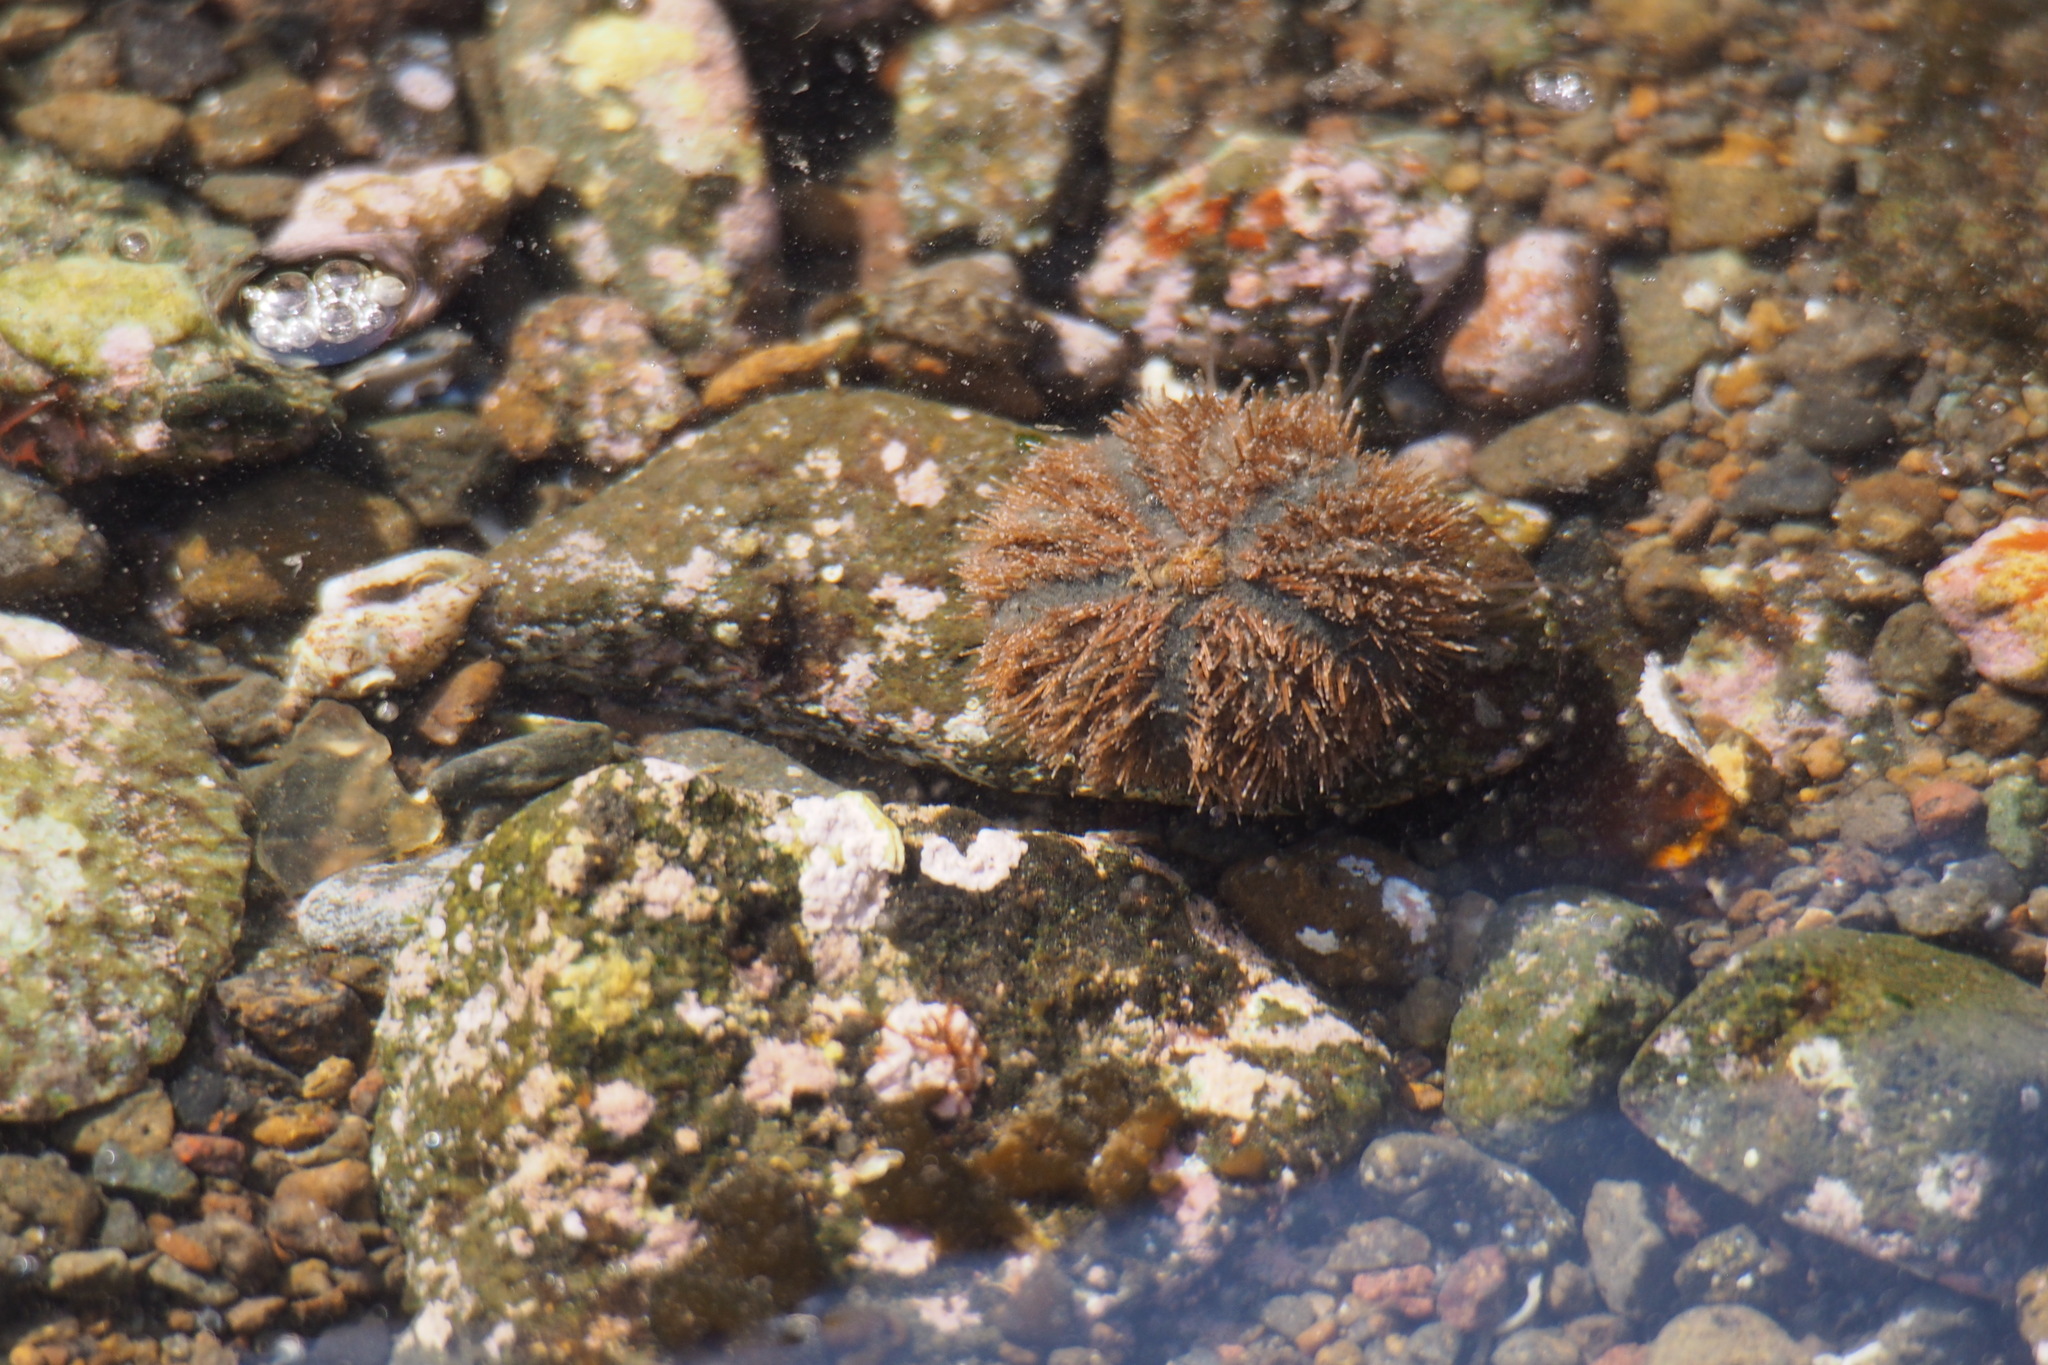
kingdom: Animalia
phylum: Echinodermata
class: Echinoidea
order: Camarodonta
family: Temnopleuridae
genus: Mespilia
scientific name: Mespilia globulus
